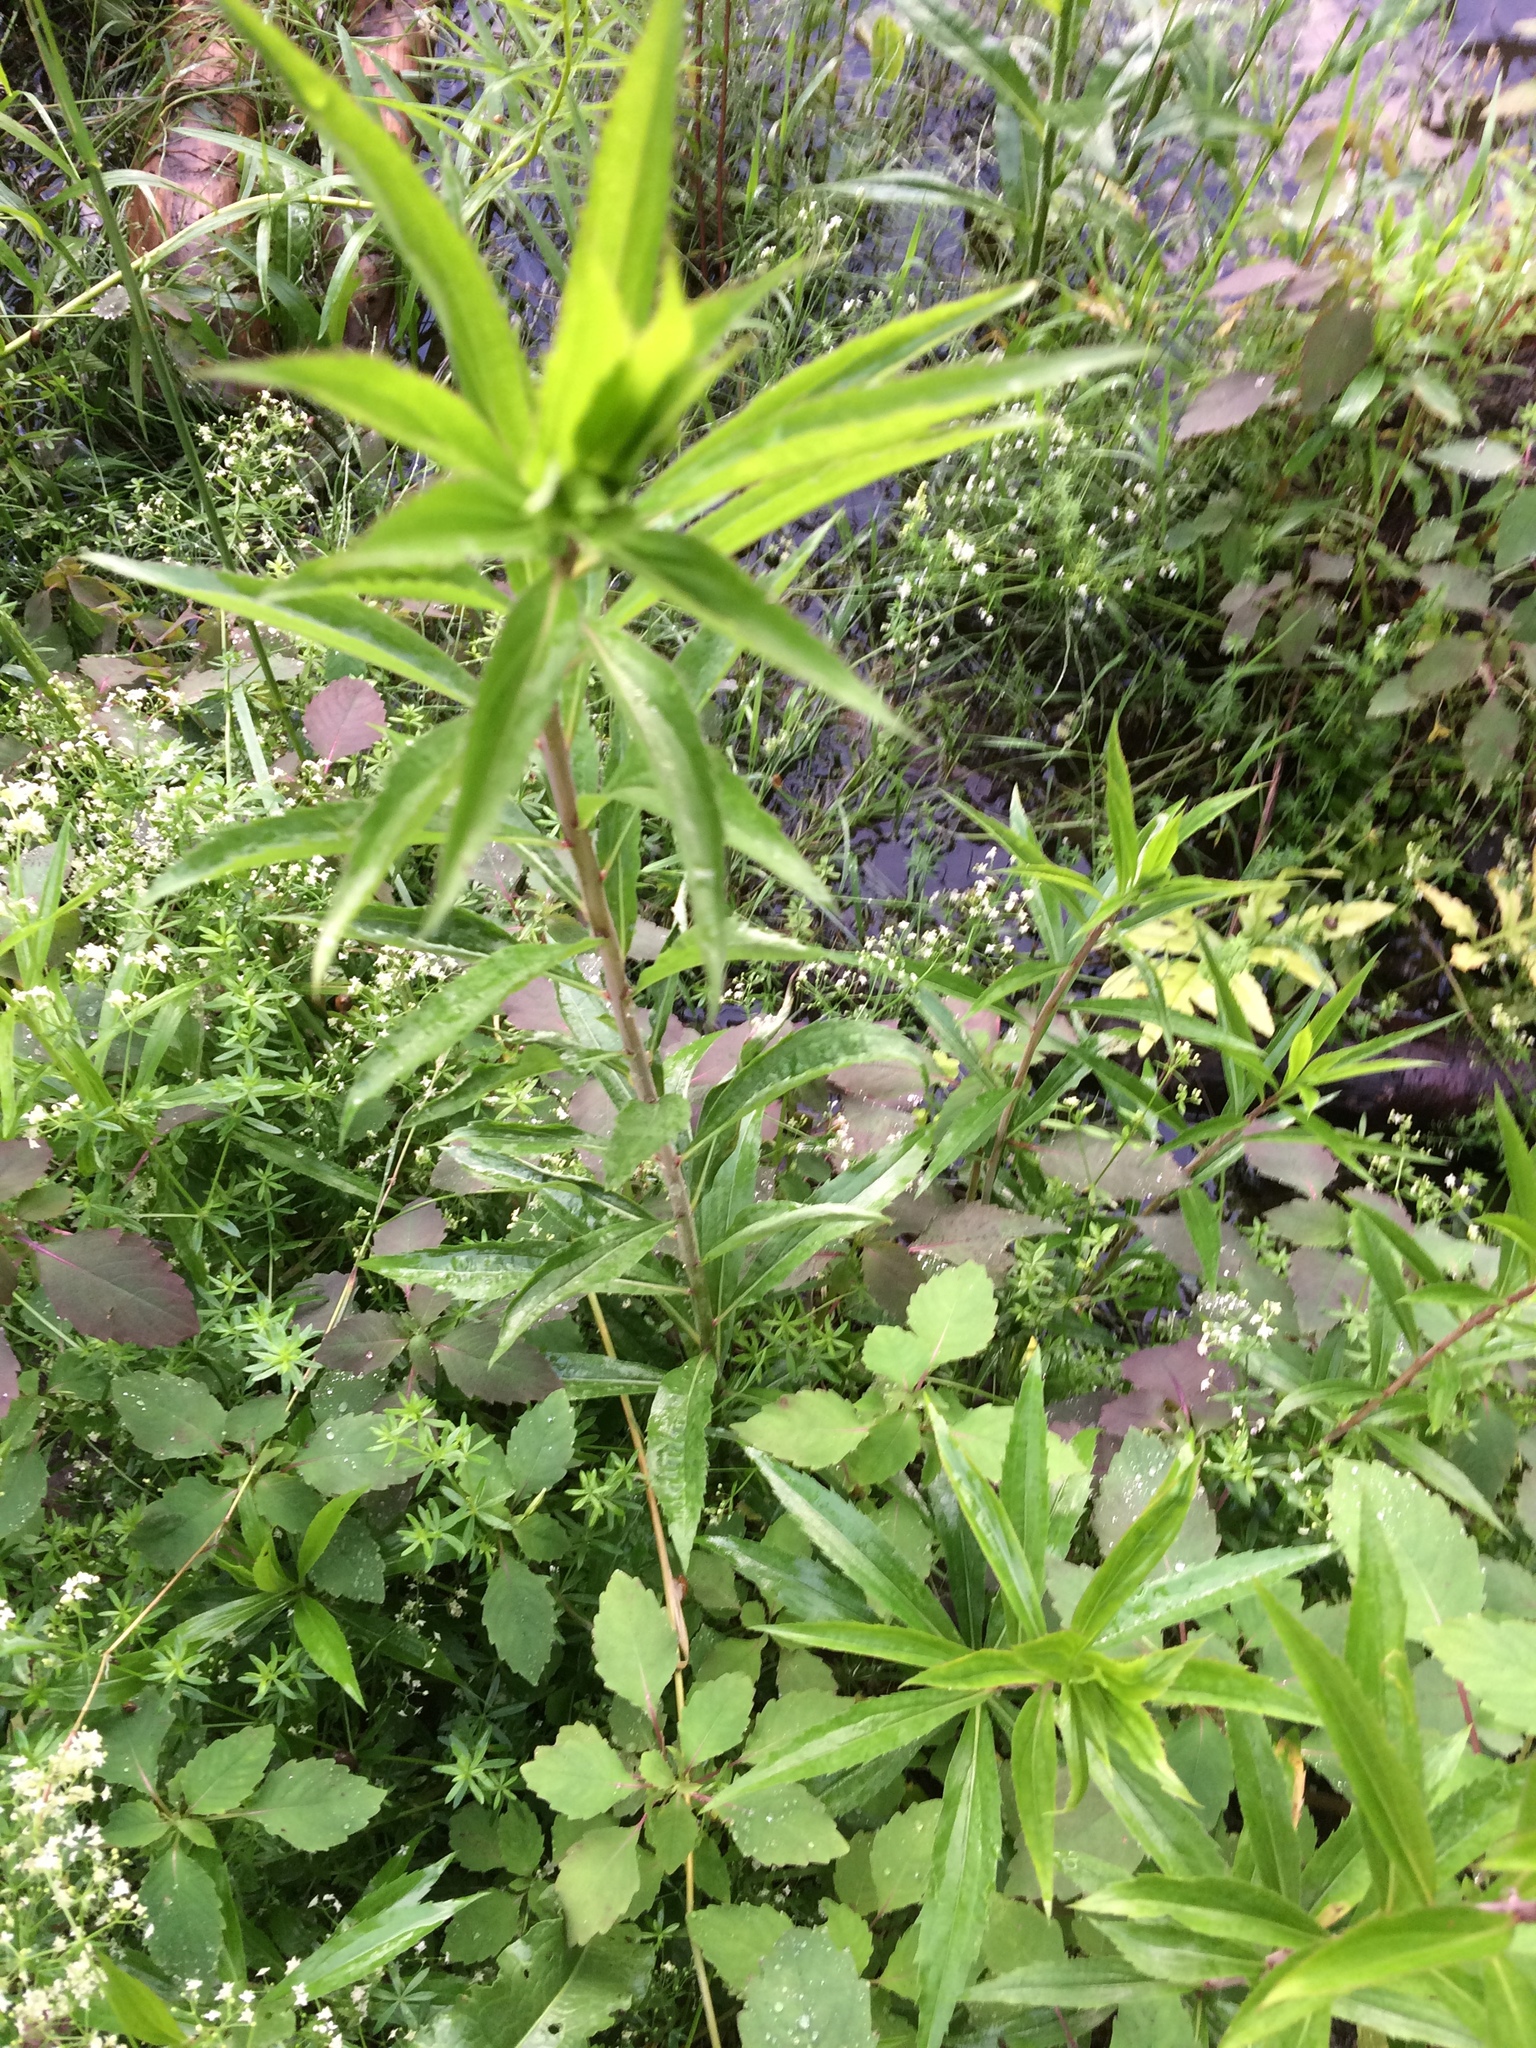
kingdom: Plantae
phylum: Tracheophyta
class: Magnoliopsida
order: Asterales
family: Asteraceae
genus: Solidago
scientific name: Solidago gigantea
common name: Giant goldenrod
